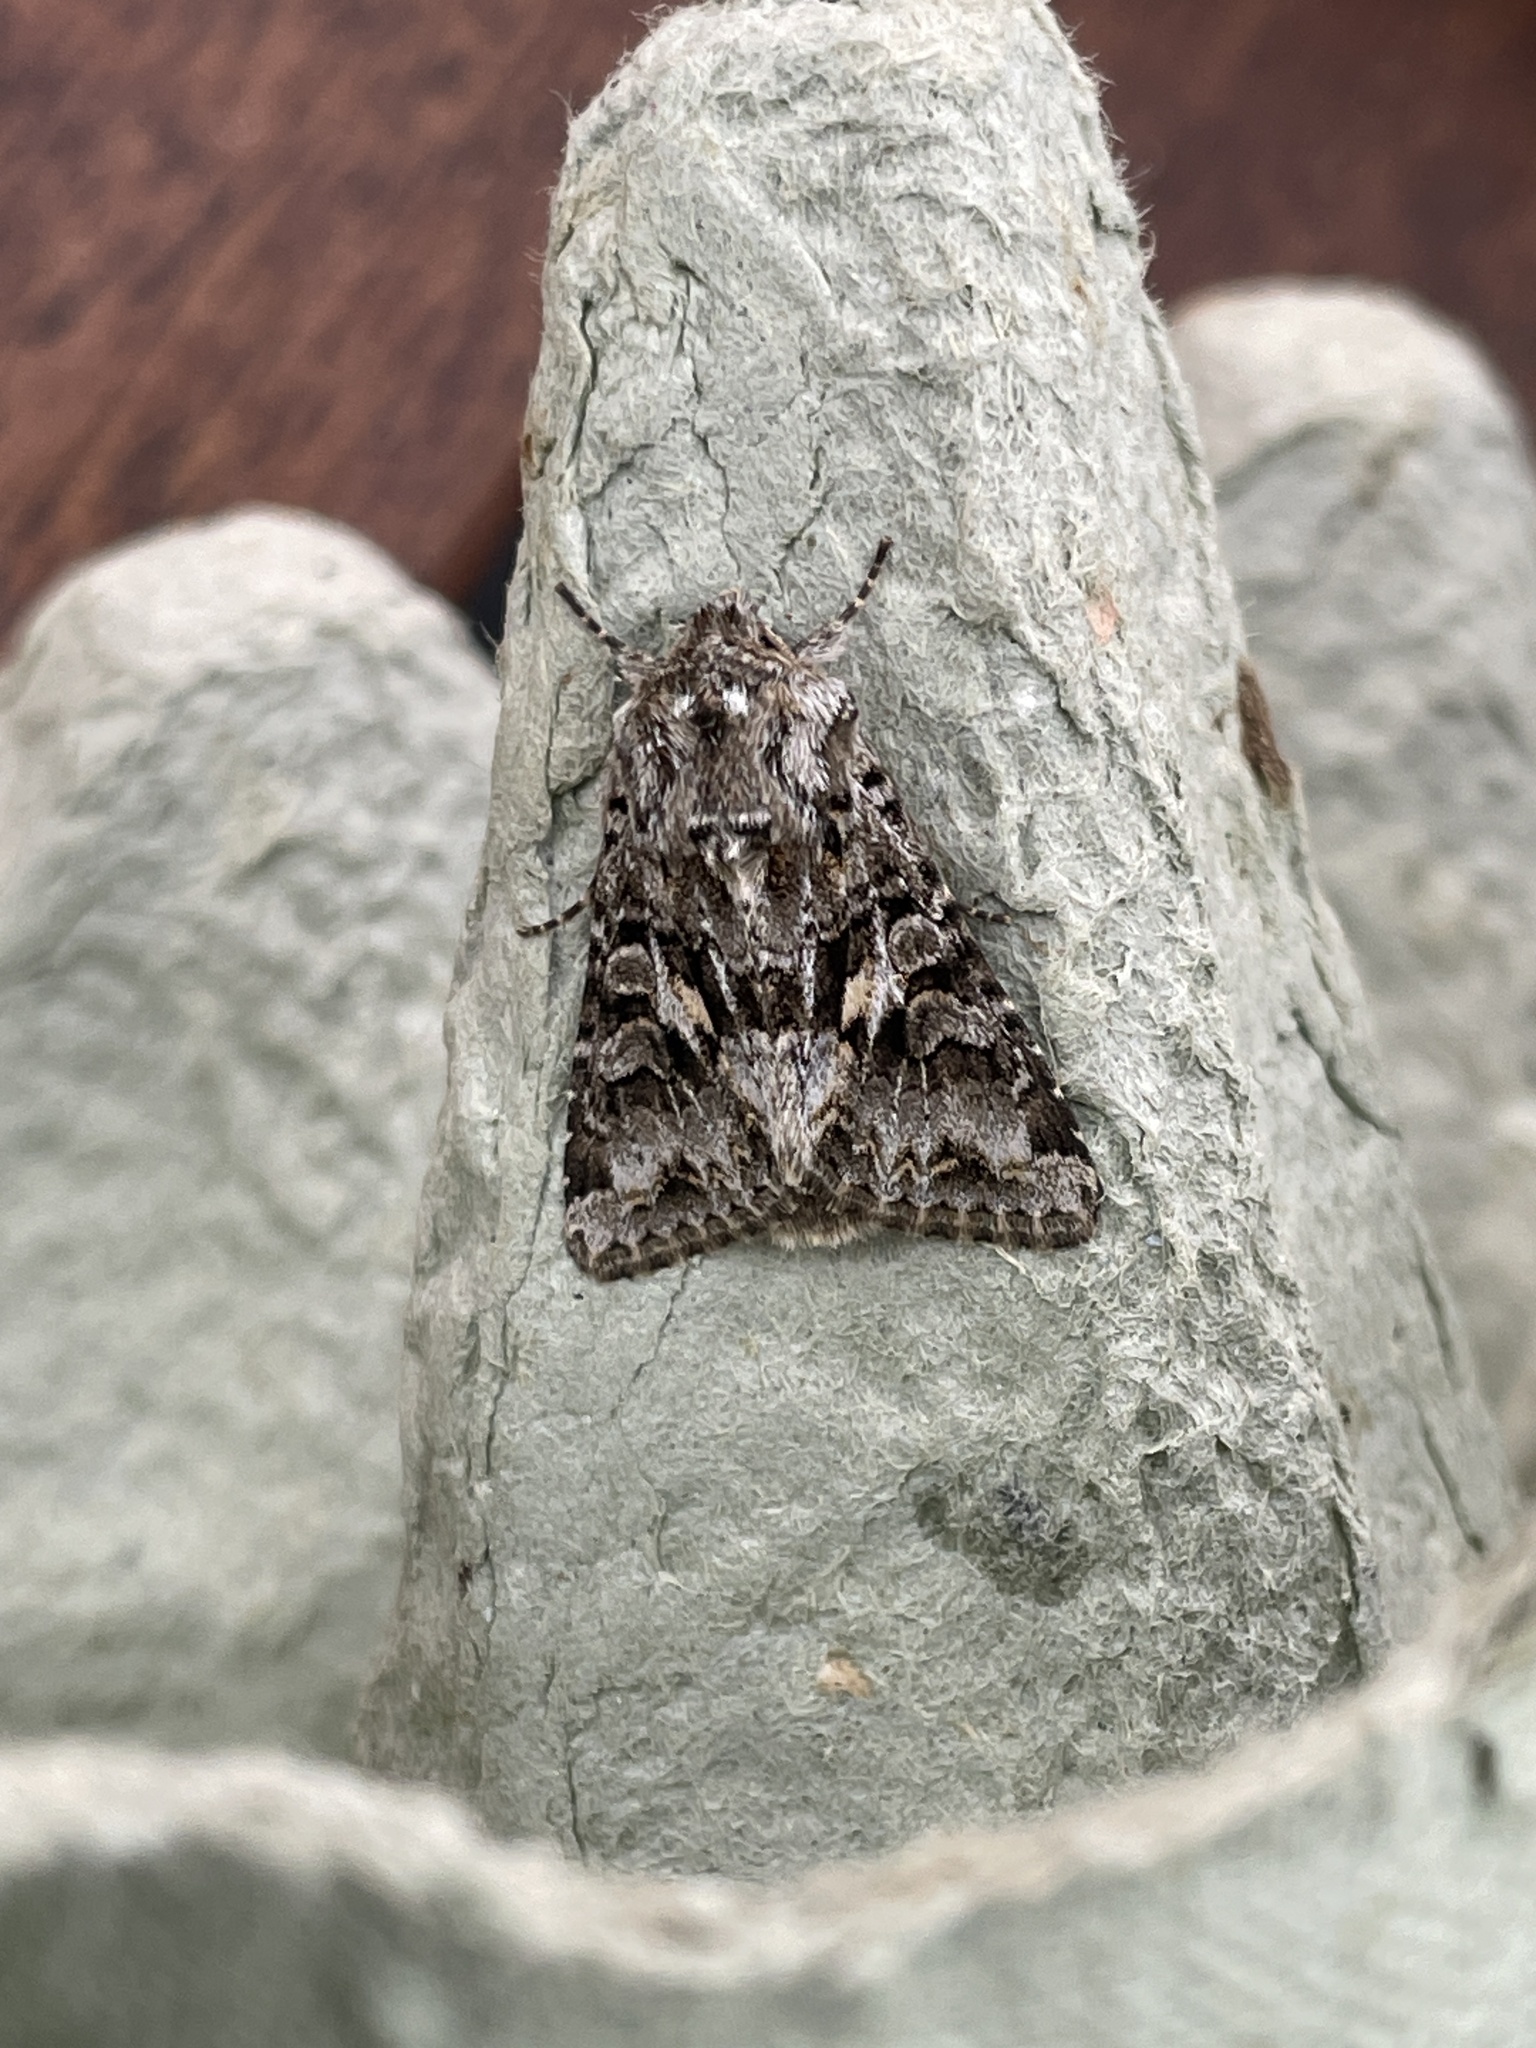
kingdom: Animalia
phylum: Arthropoda
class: Insecta
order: Lepidoptera
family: Noctuidae
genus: Hada
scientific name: Hada plebeja
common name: Shears
